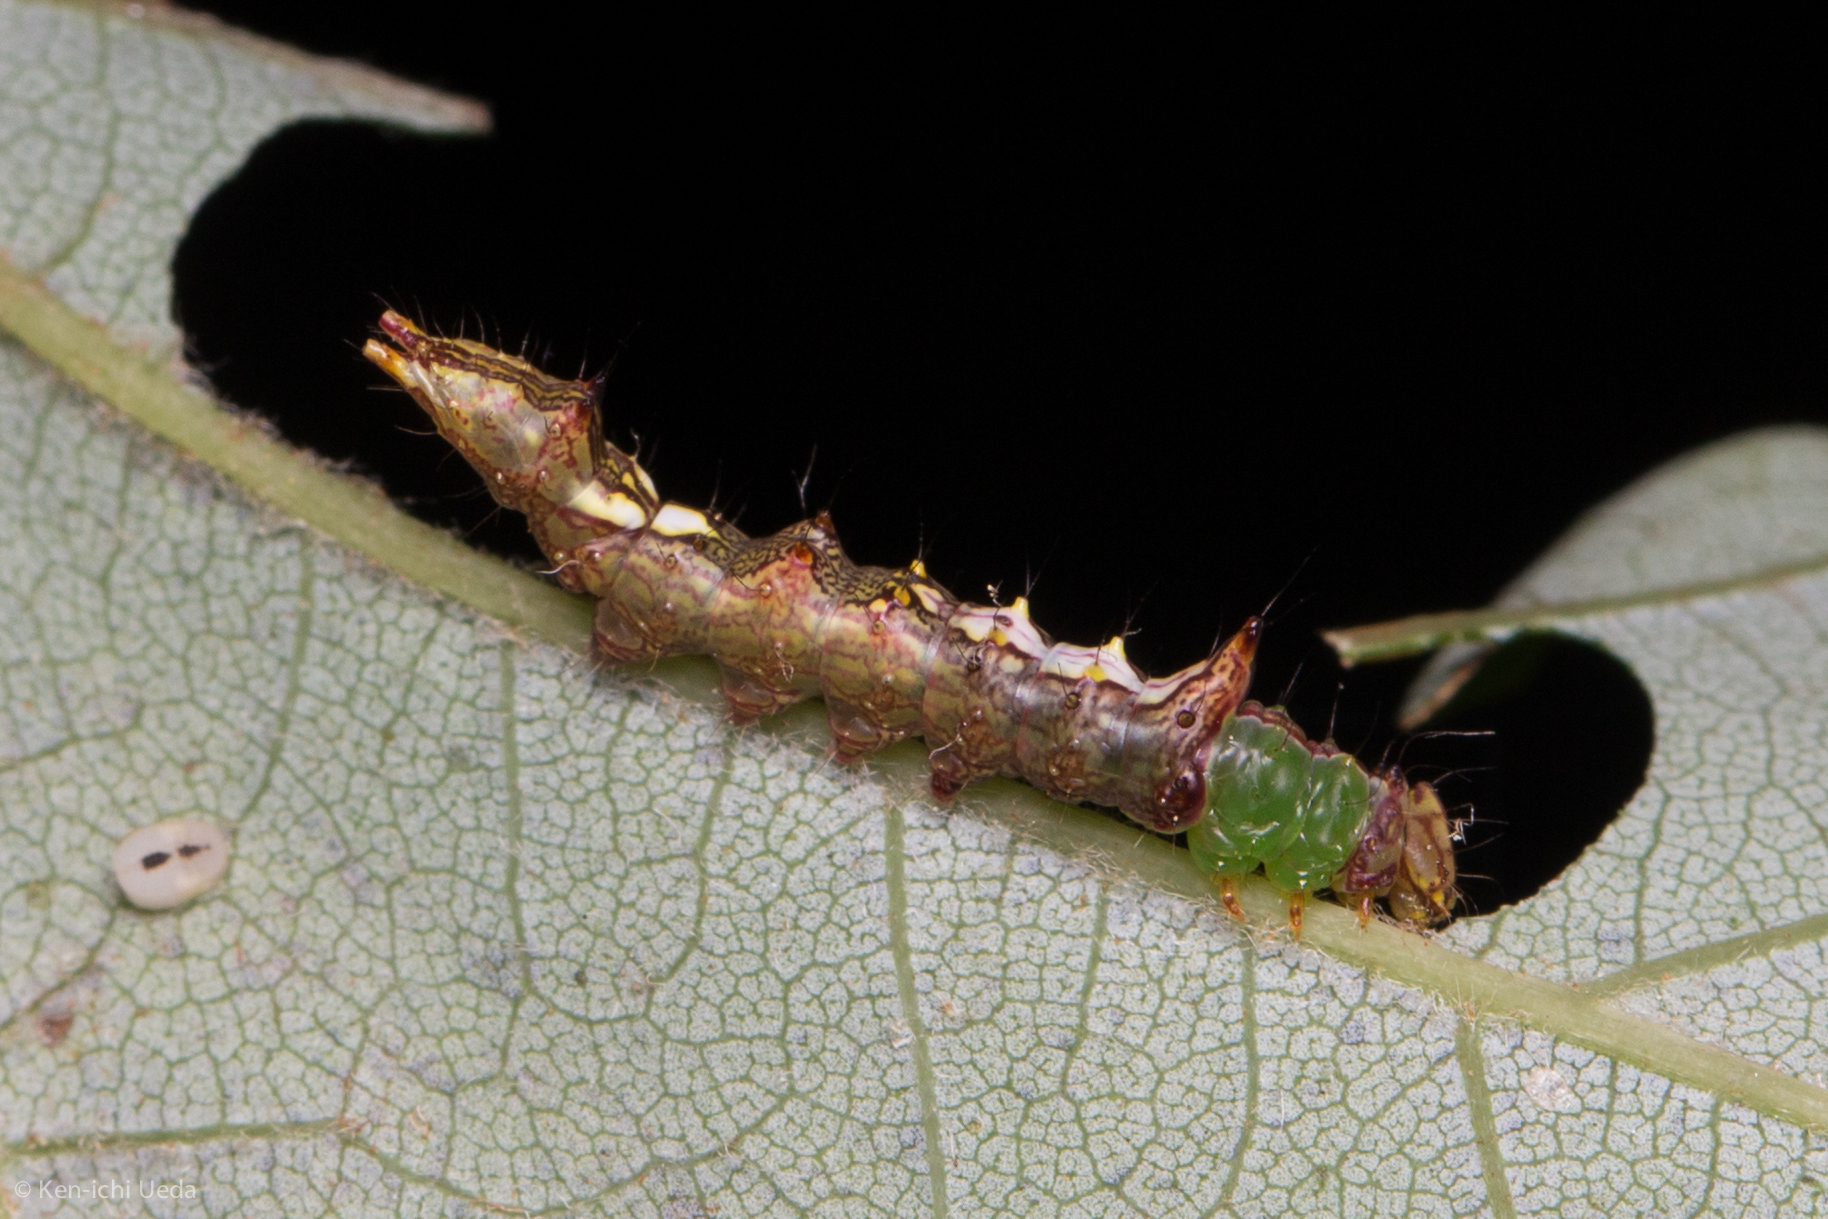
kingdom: Animalia
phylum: Arthropoda
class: Insecta
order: Lepidoptera
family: Notodontidae
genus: Schizura
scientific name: Schizura ipomaeae
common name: Morning-glory prominent
